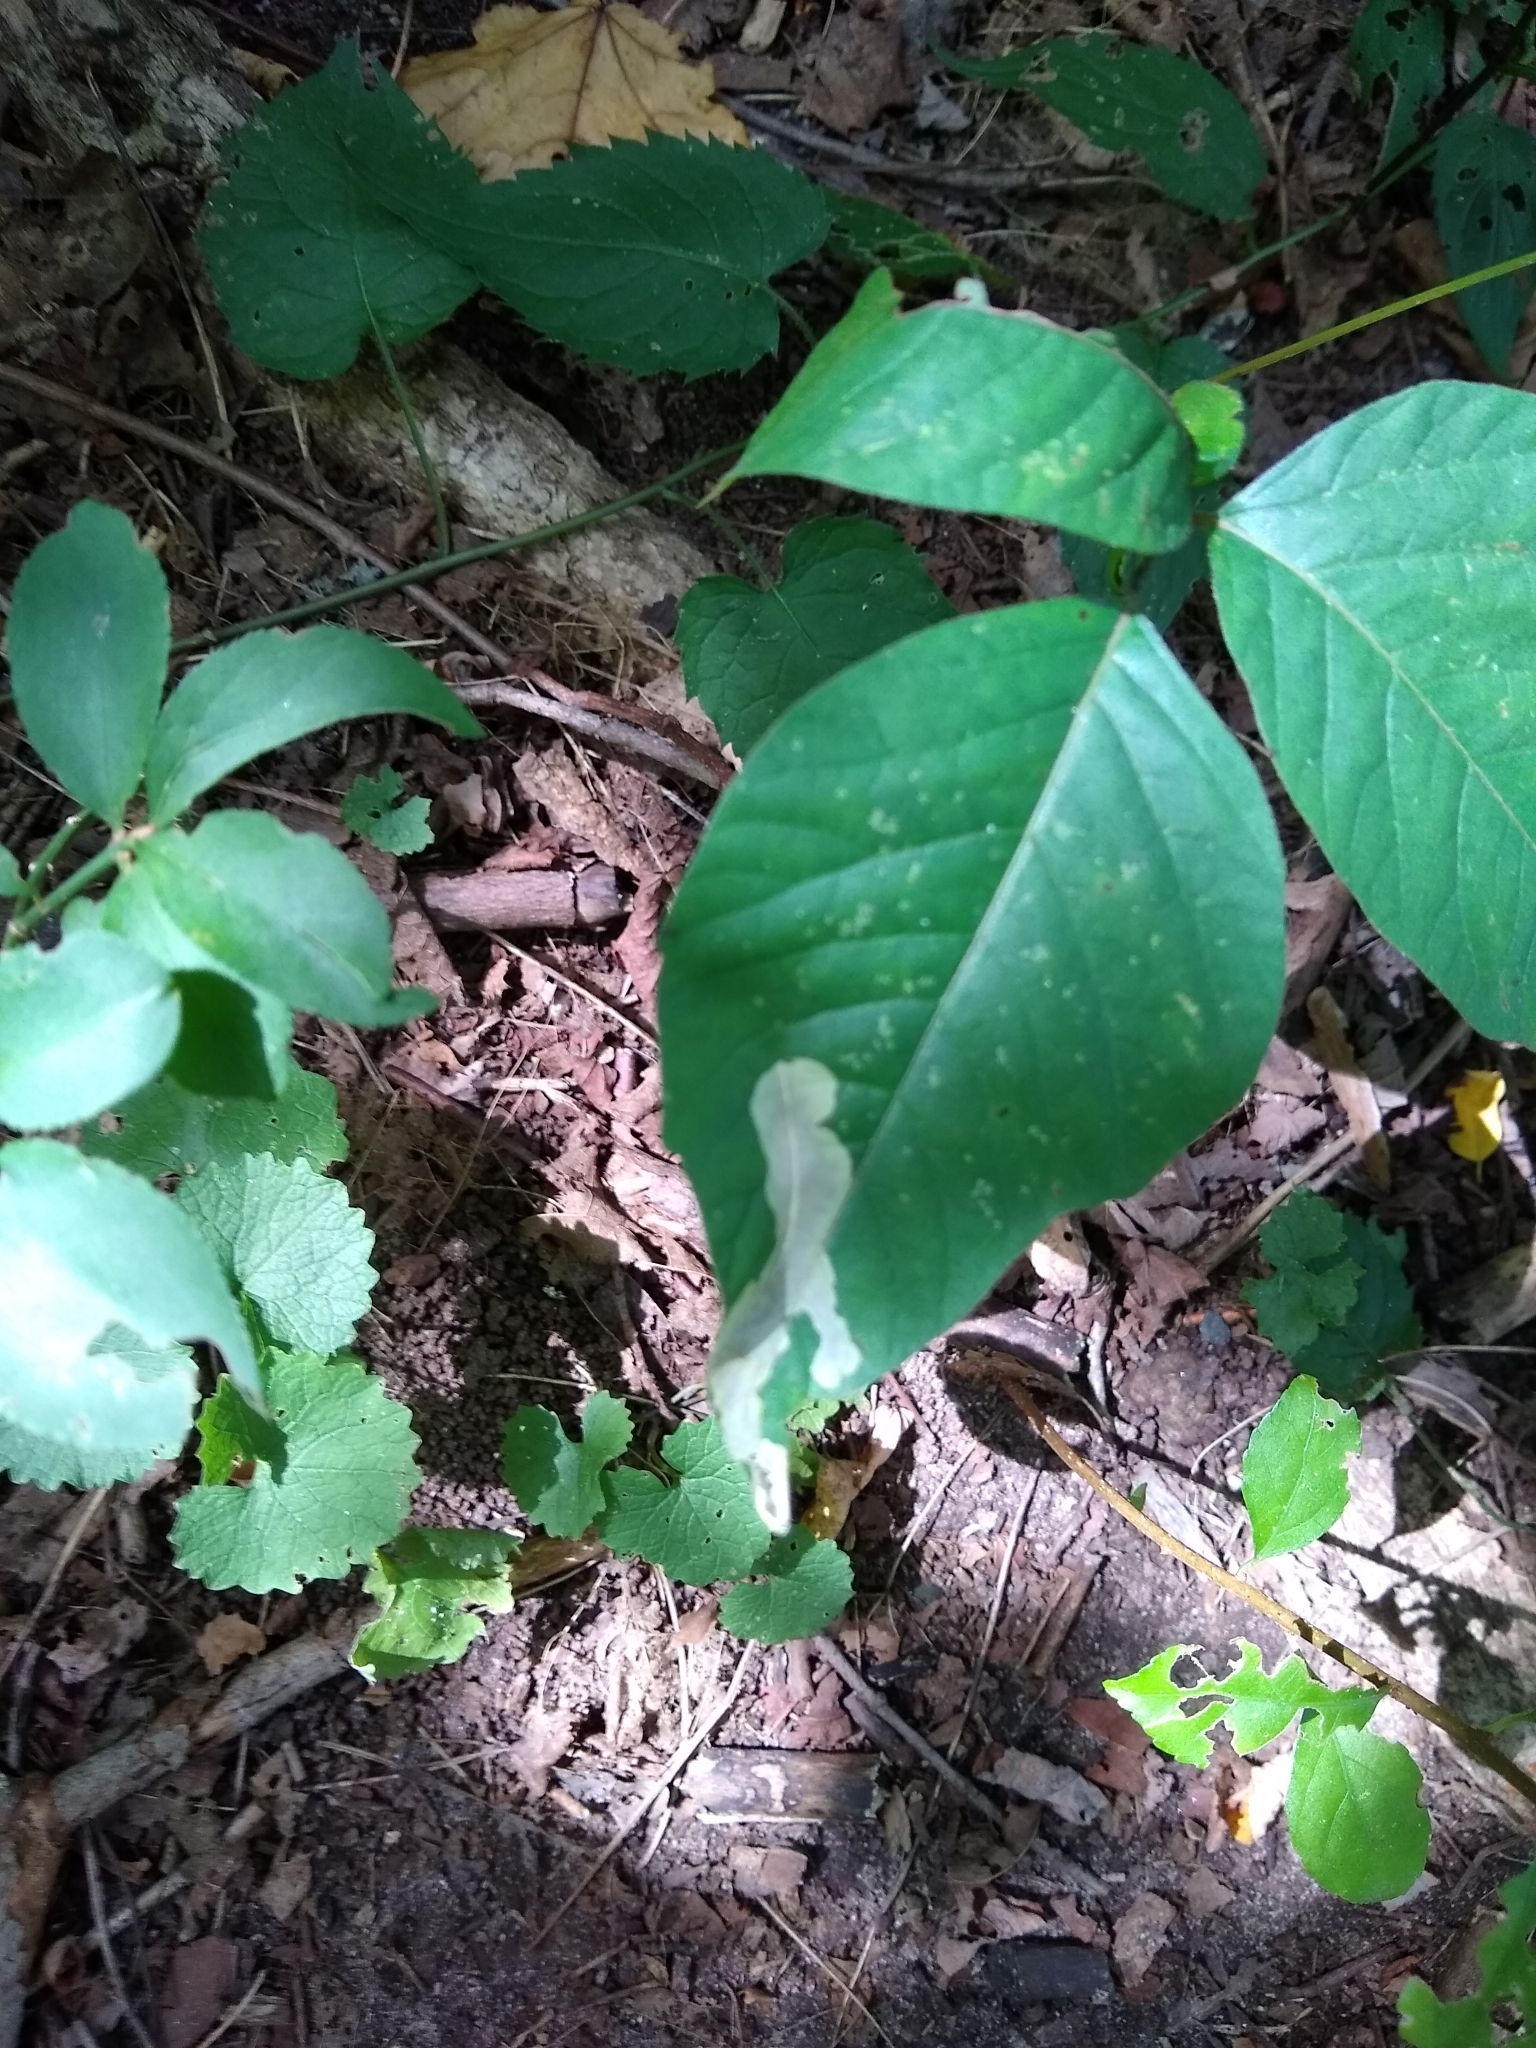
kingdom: Animalia
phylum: Arthropoda
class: Insecta
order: Lepidoptera
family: Gracillariidae
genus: Cameraria
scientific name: Cameraria guttifinitella
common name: Poison ivy leaf-miner moth
